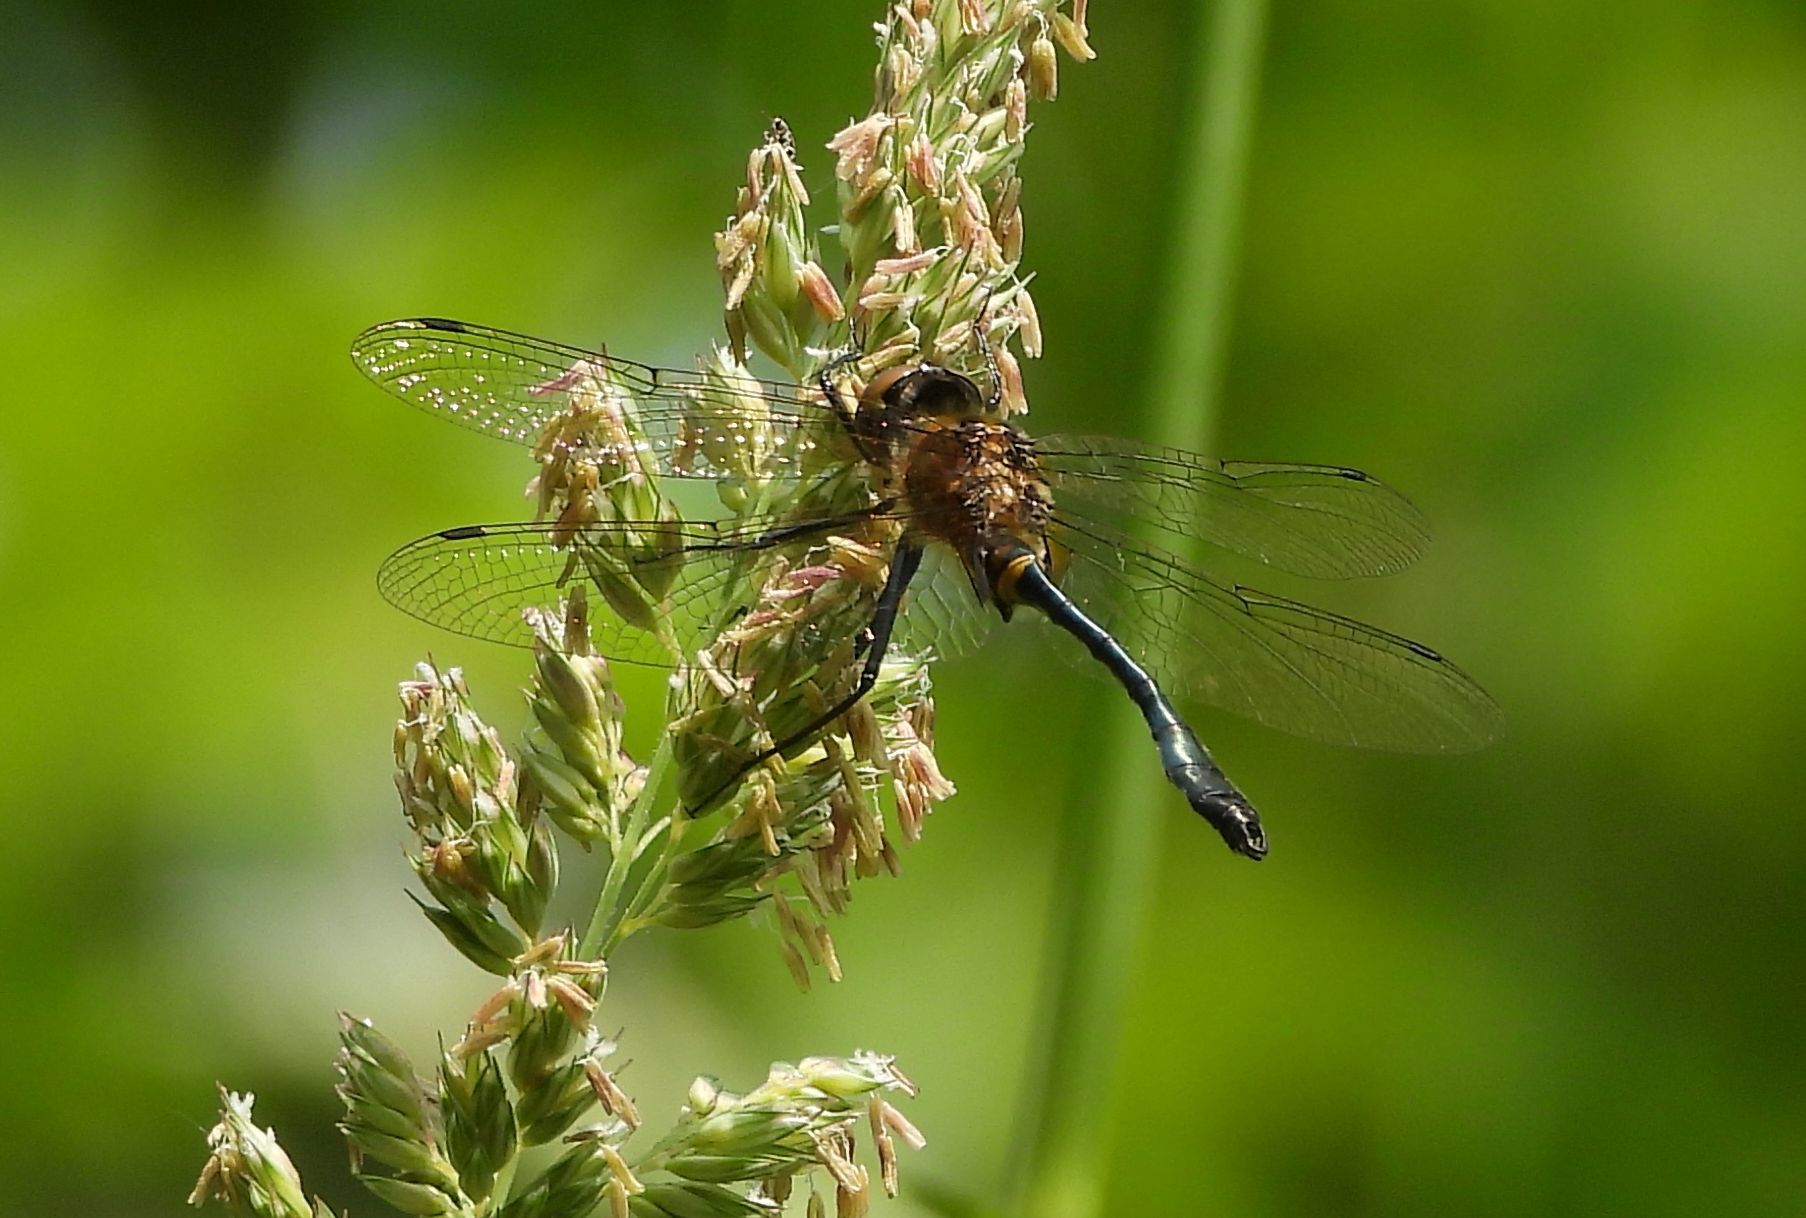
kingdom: Animalia
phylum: Arthropoda
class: Insecta
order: Odonata
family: Corduliidae
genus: Dorocordulia
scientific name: Dorocordulia libera
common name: Racket-tailed emerald
